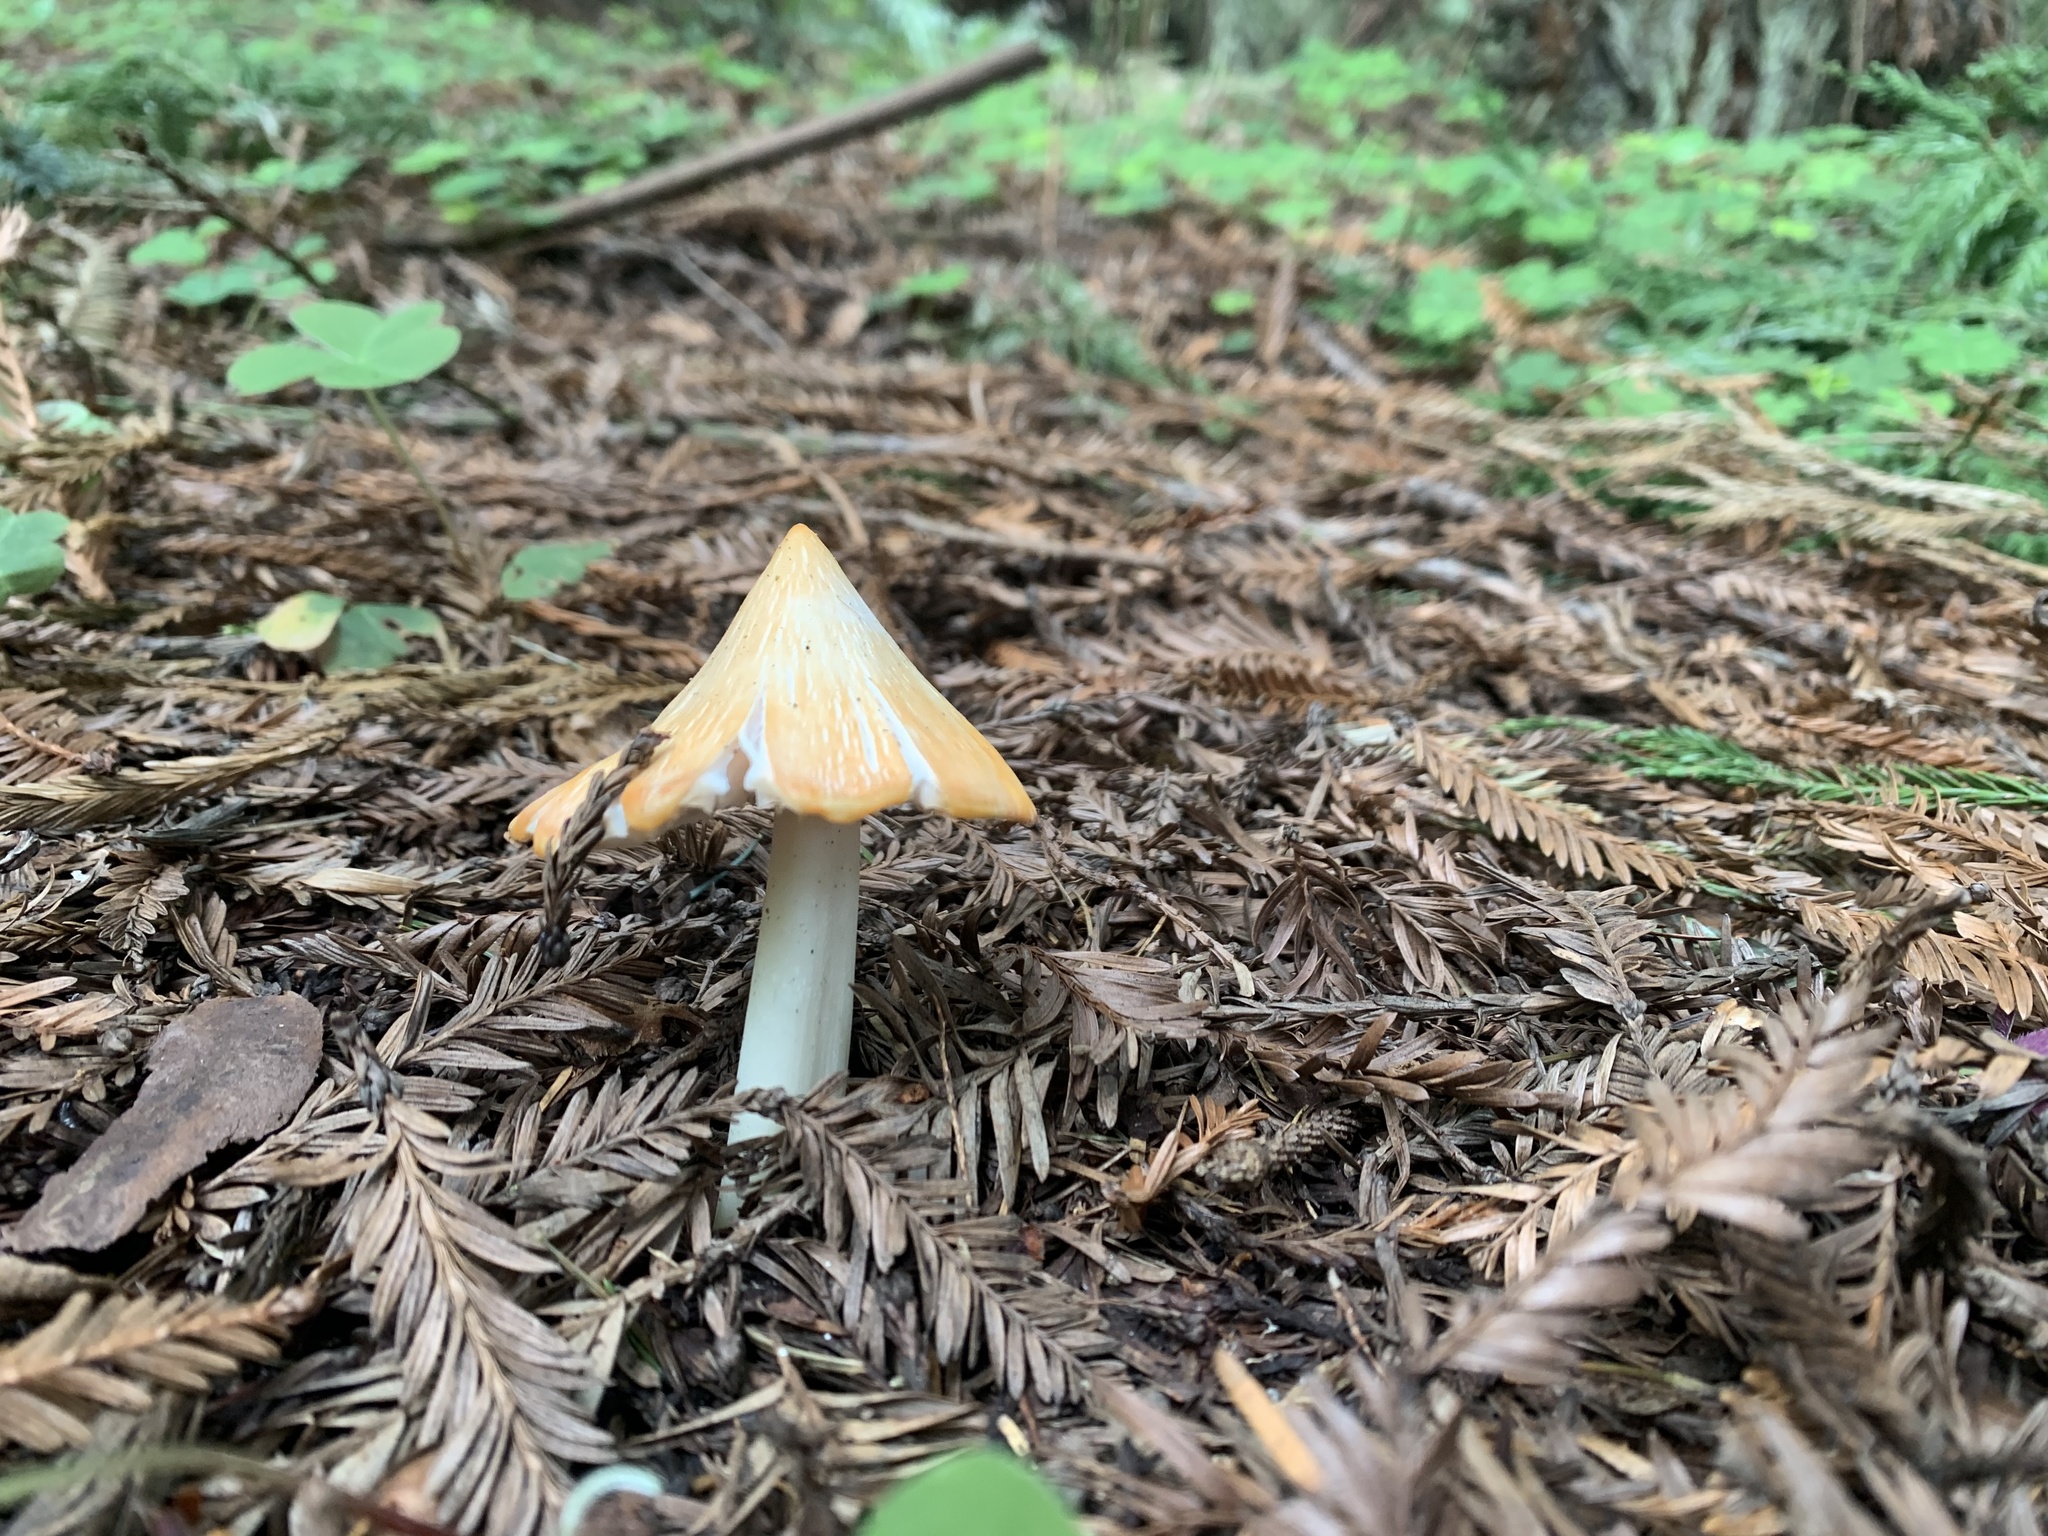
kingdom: Fungi
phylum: Basidiomycota
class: Agaricomycetes
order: Agaricales
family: Hygrophoraceae
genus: Porpolomopsis
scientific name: Porpolomopsis calyptriformis
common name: Pink waxcap
